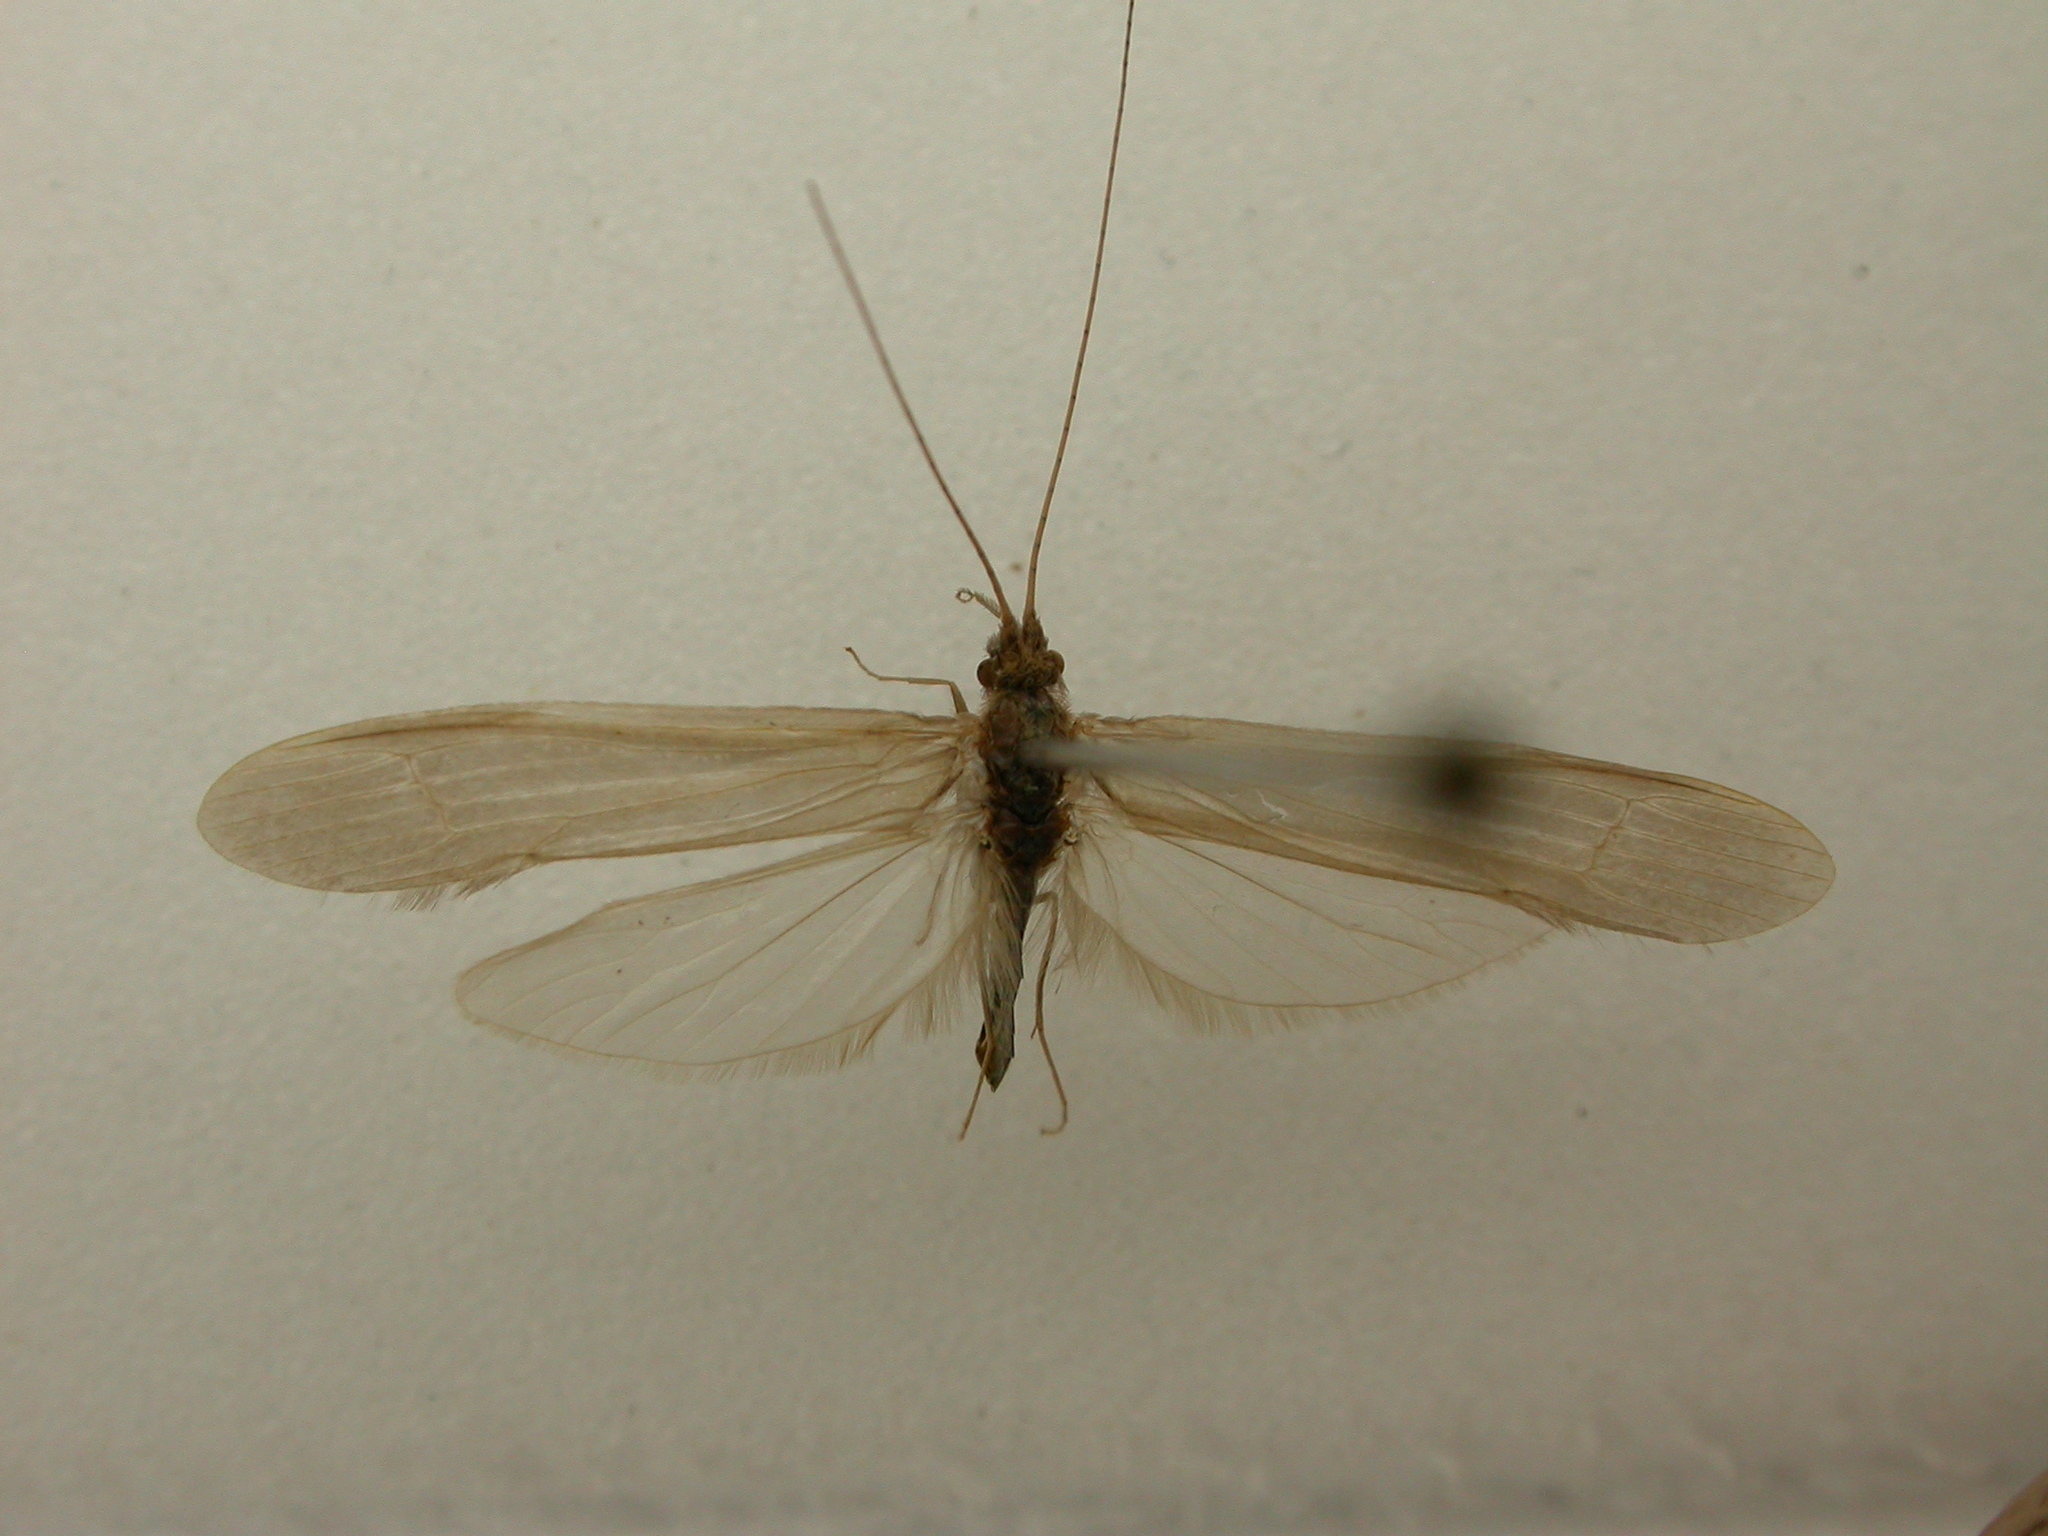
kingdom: Animalia
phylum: Arthropoda
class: Insecta
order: Trichoptera
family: Leptoceridae
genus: Oecetis
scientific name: Oecetis ochracea
